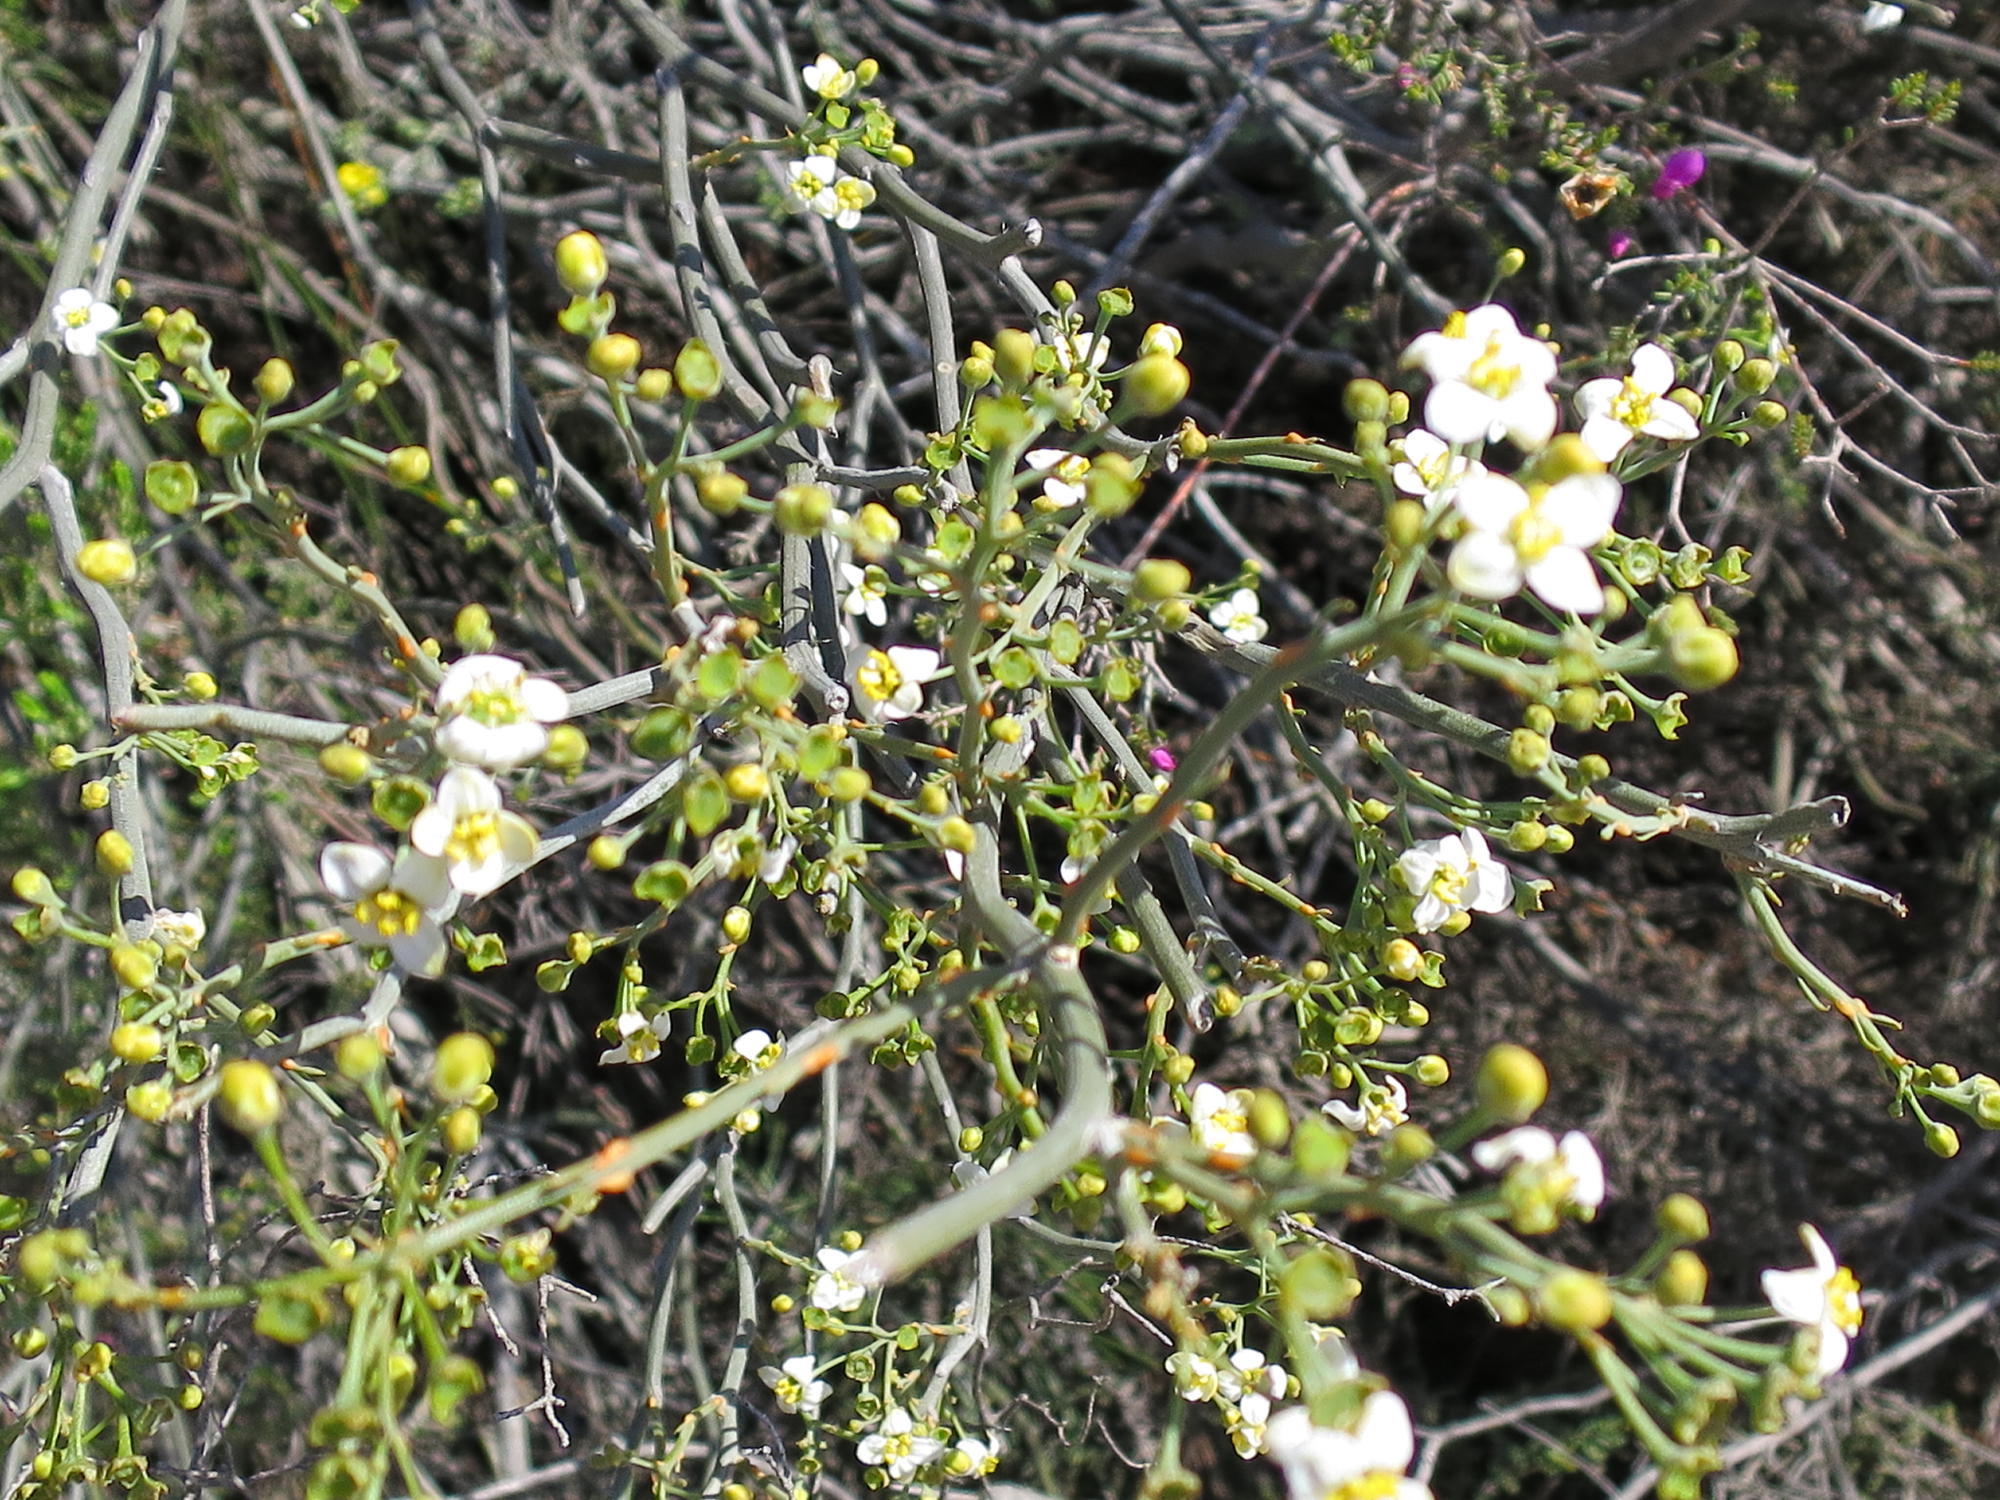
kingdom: Plantae
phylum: Tracheophyta
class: Magnoliopsida
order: Solanales
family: Montiniaceae
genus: Montinia
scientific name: Montinia caryophyllacea
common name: Wild clove-bush
